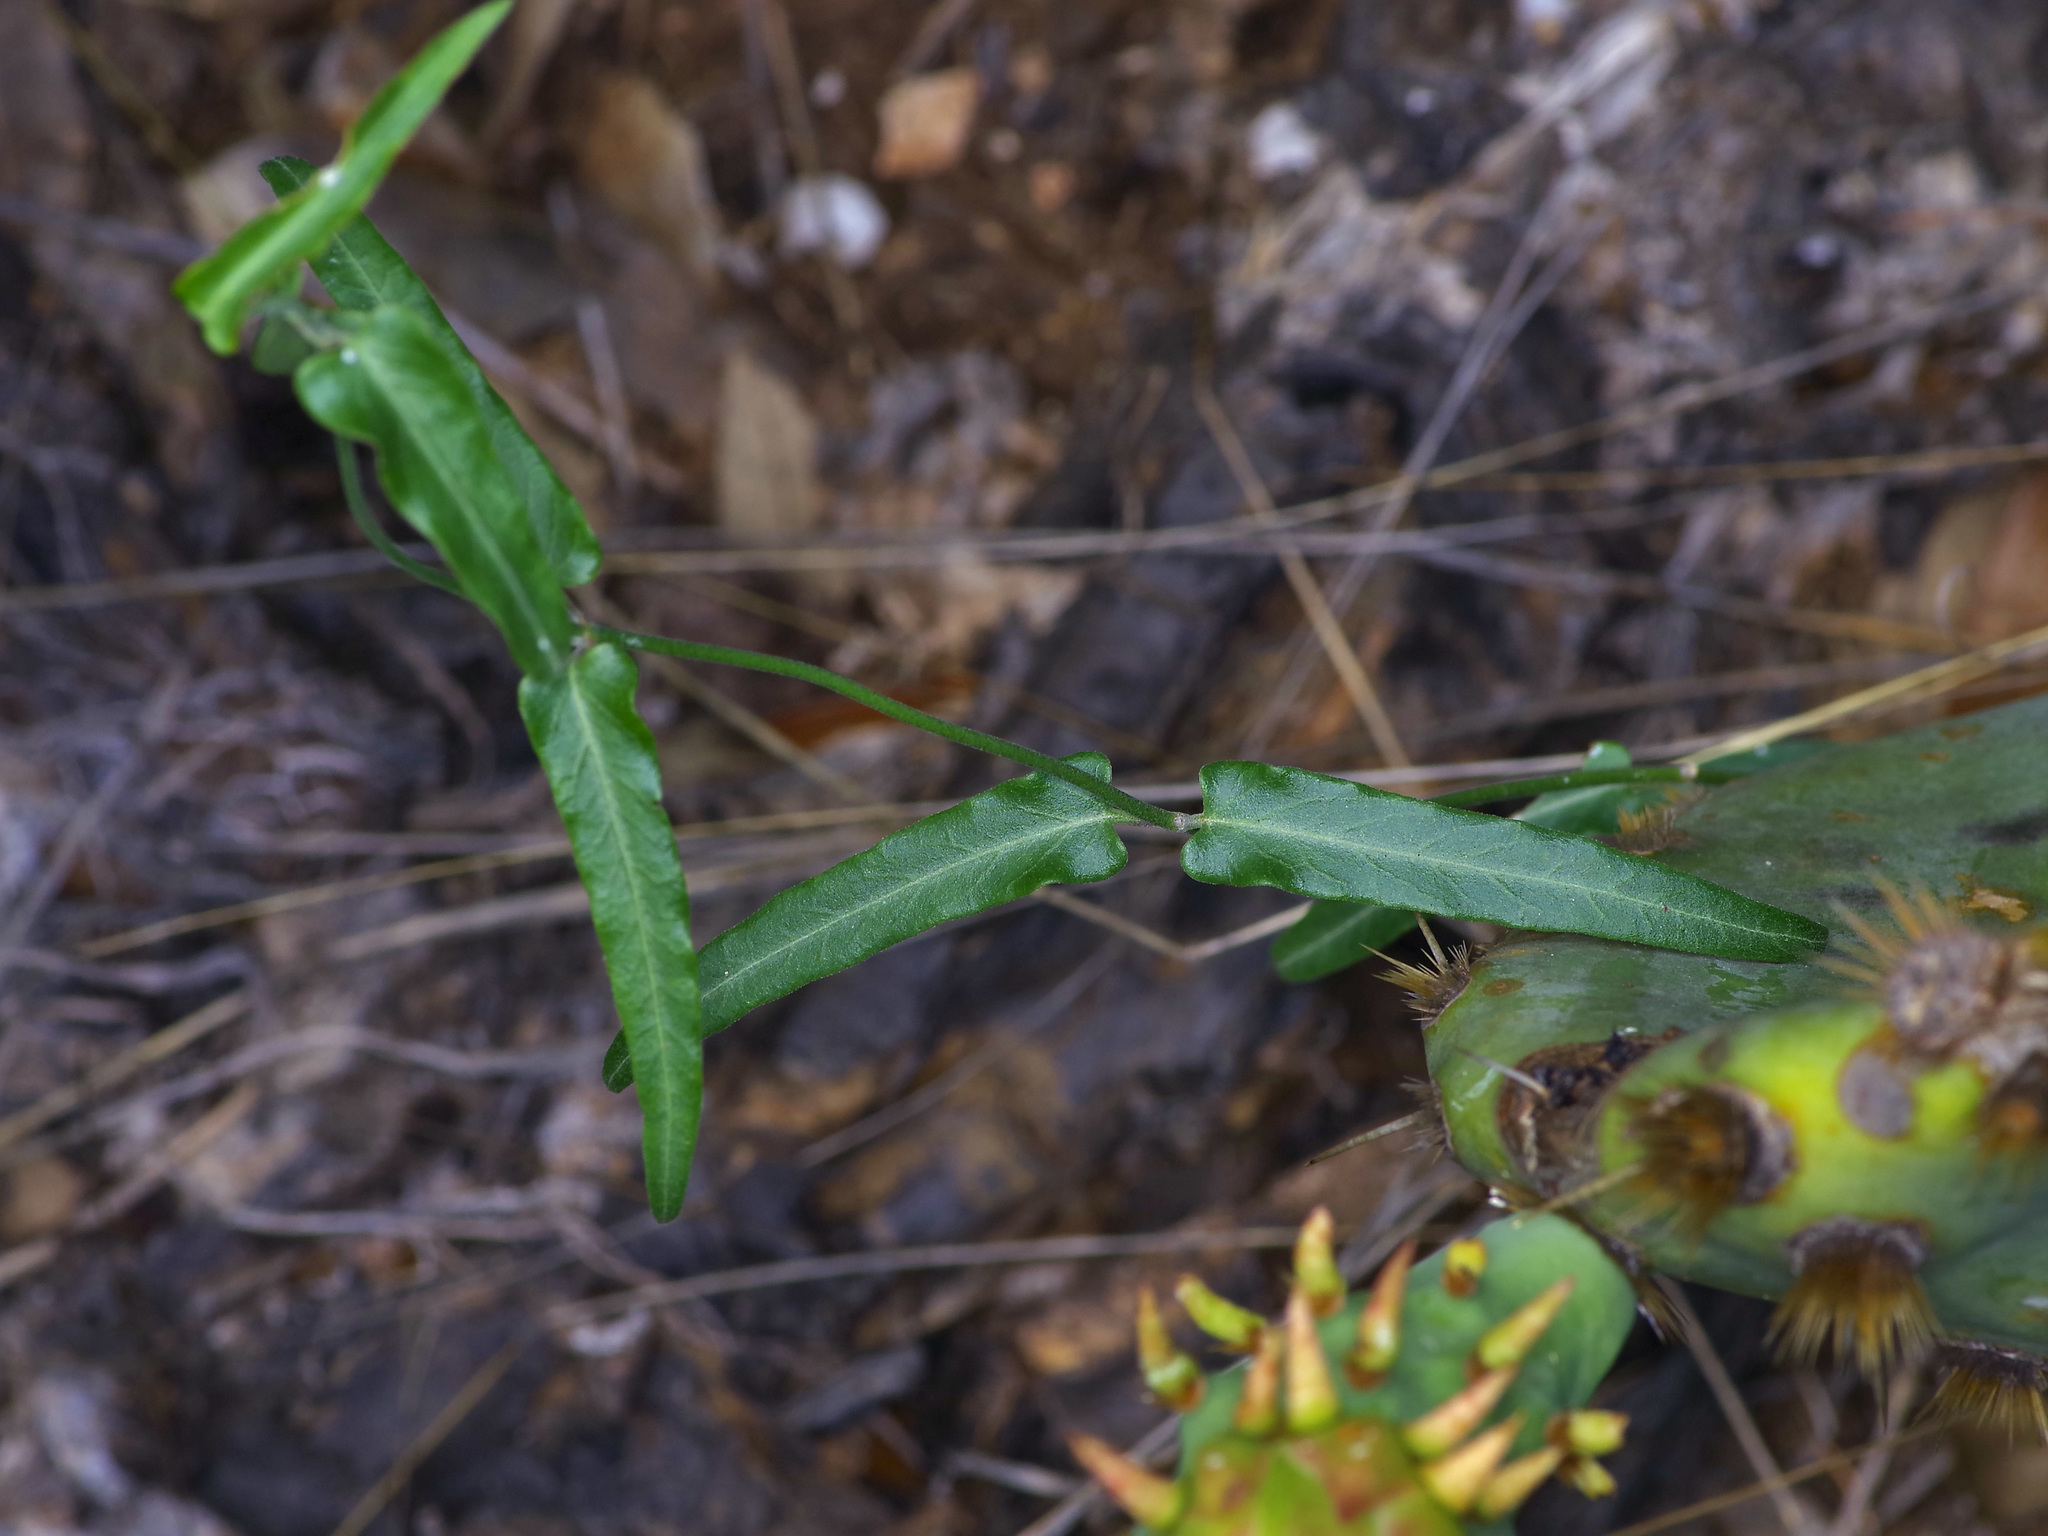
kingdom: Plantae
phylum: Tracheophyta
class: Magnoliopsida
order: Gentianales
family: Apocynaceae
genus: Funastrum
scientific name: Funastrum crispum
